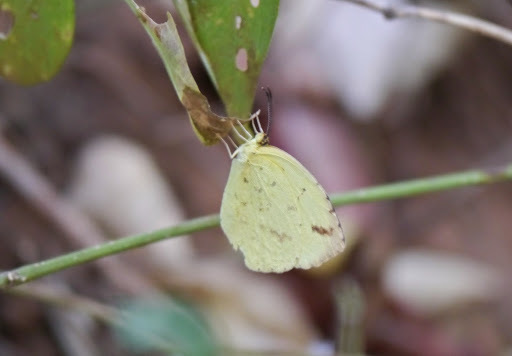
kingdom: Animalia
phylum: Arthropoda
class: Insecta
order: Lepidoptera
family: Pieridae
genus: Eurema
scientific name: Eurema regularis
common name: Regular grass yellow
